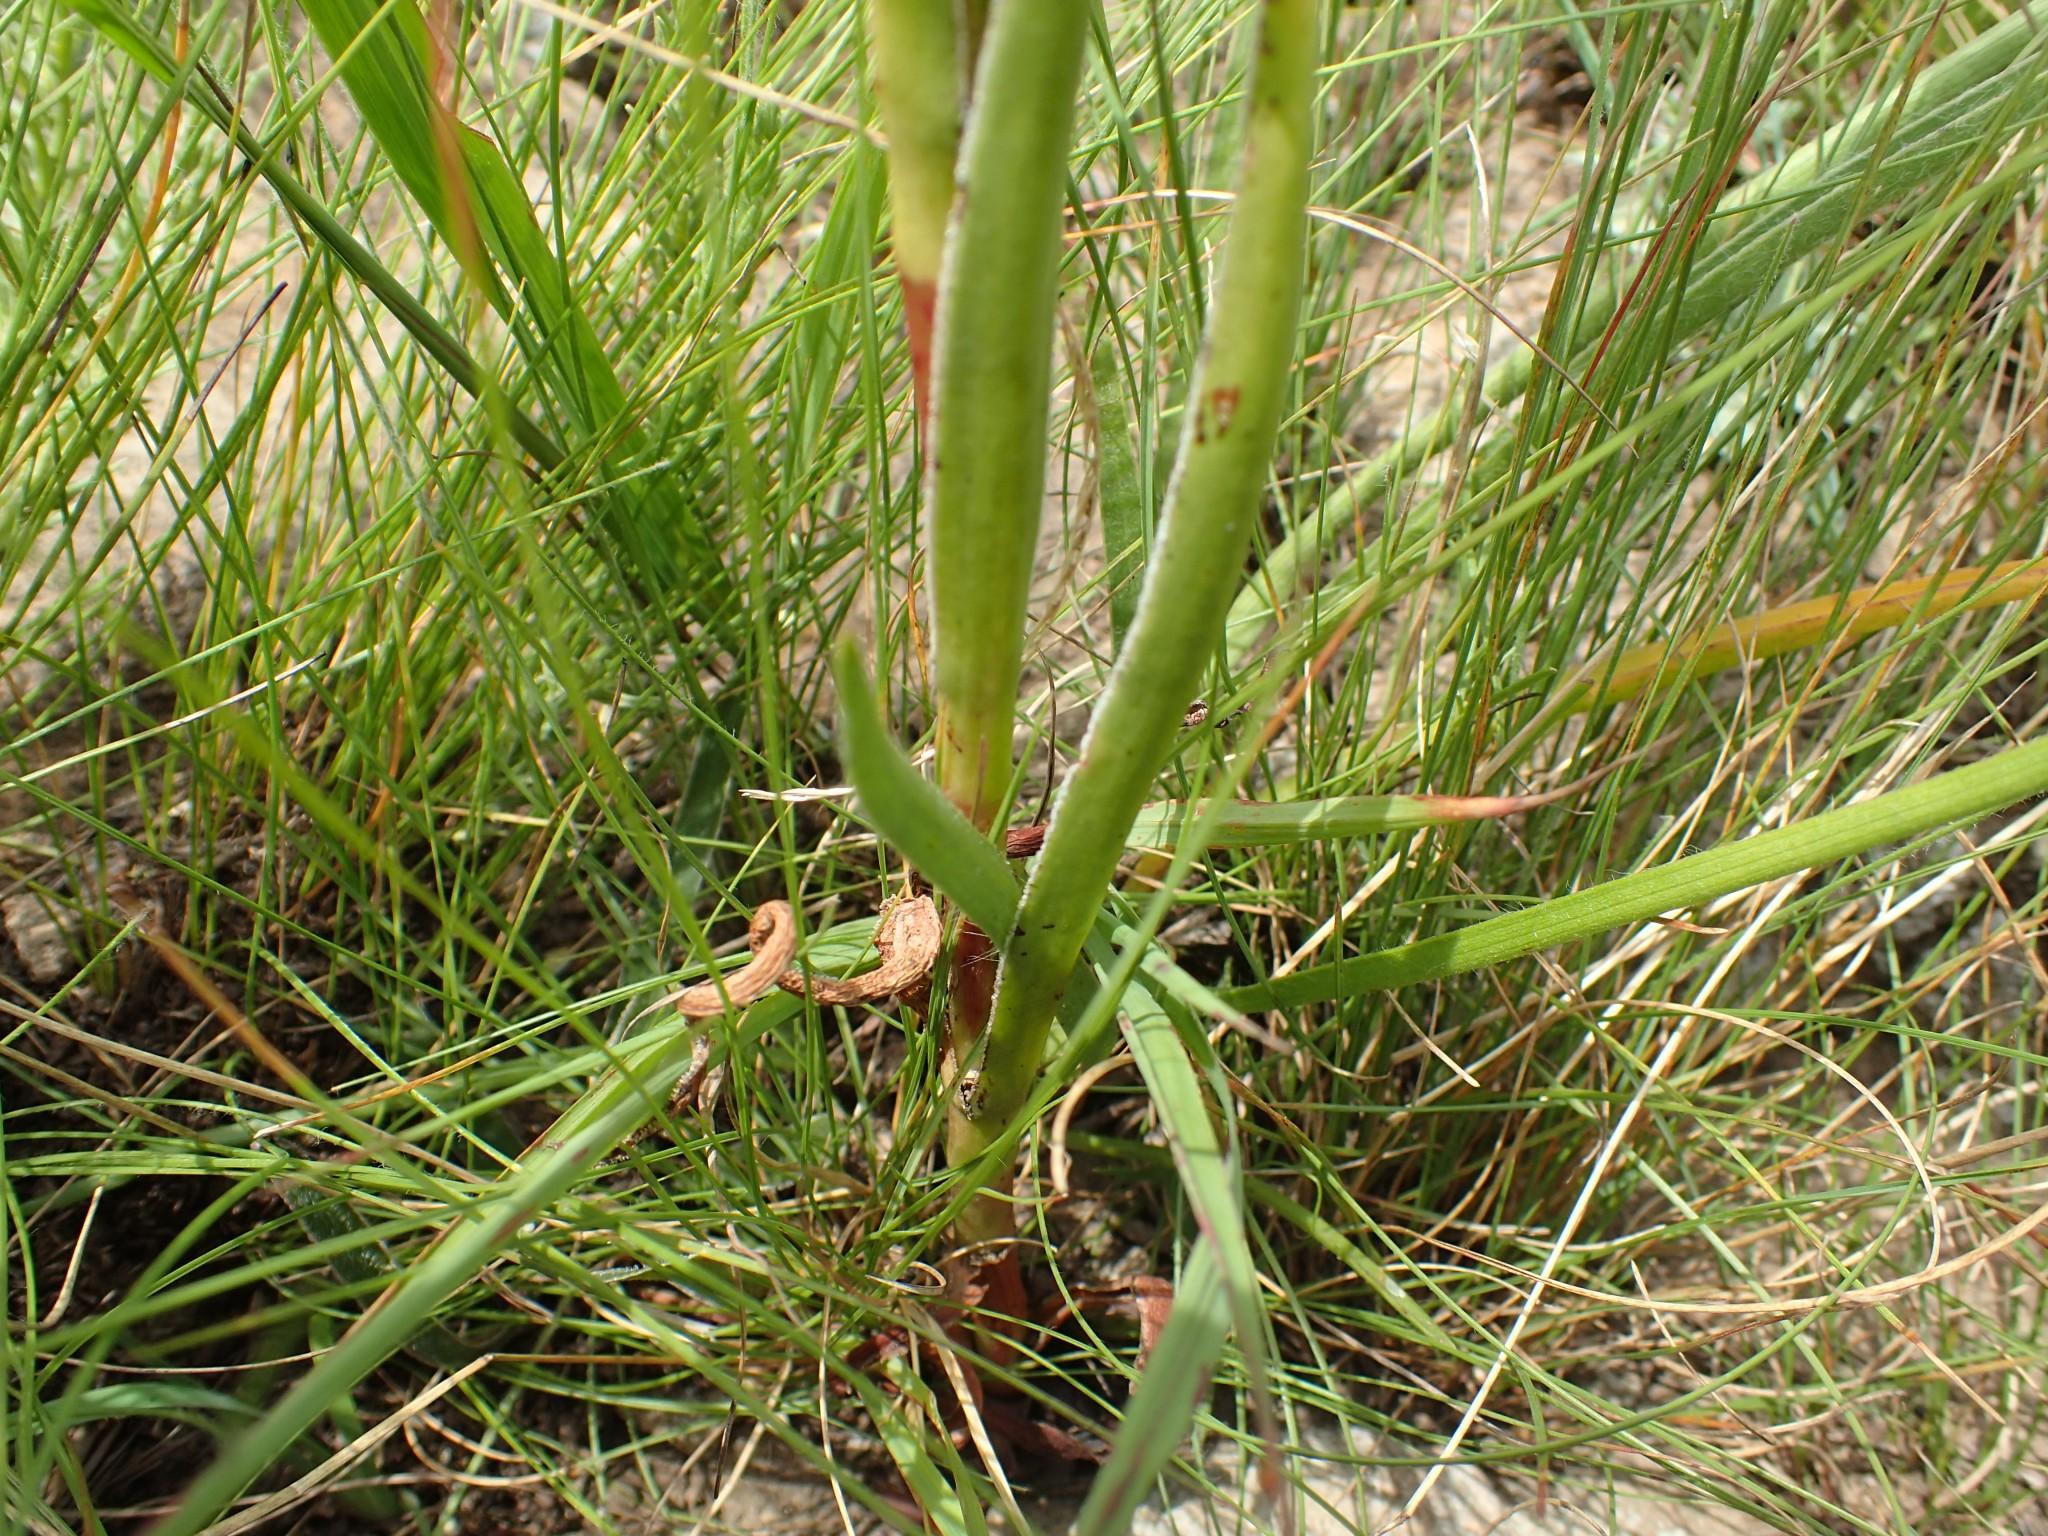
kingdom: Plantae
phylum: Tracheophyta
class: Magnoliopsida
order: Saxifragales
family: Crassulaceae
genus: Crassula
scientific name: Crassula vaginata
